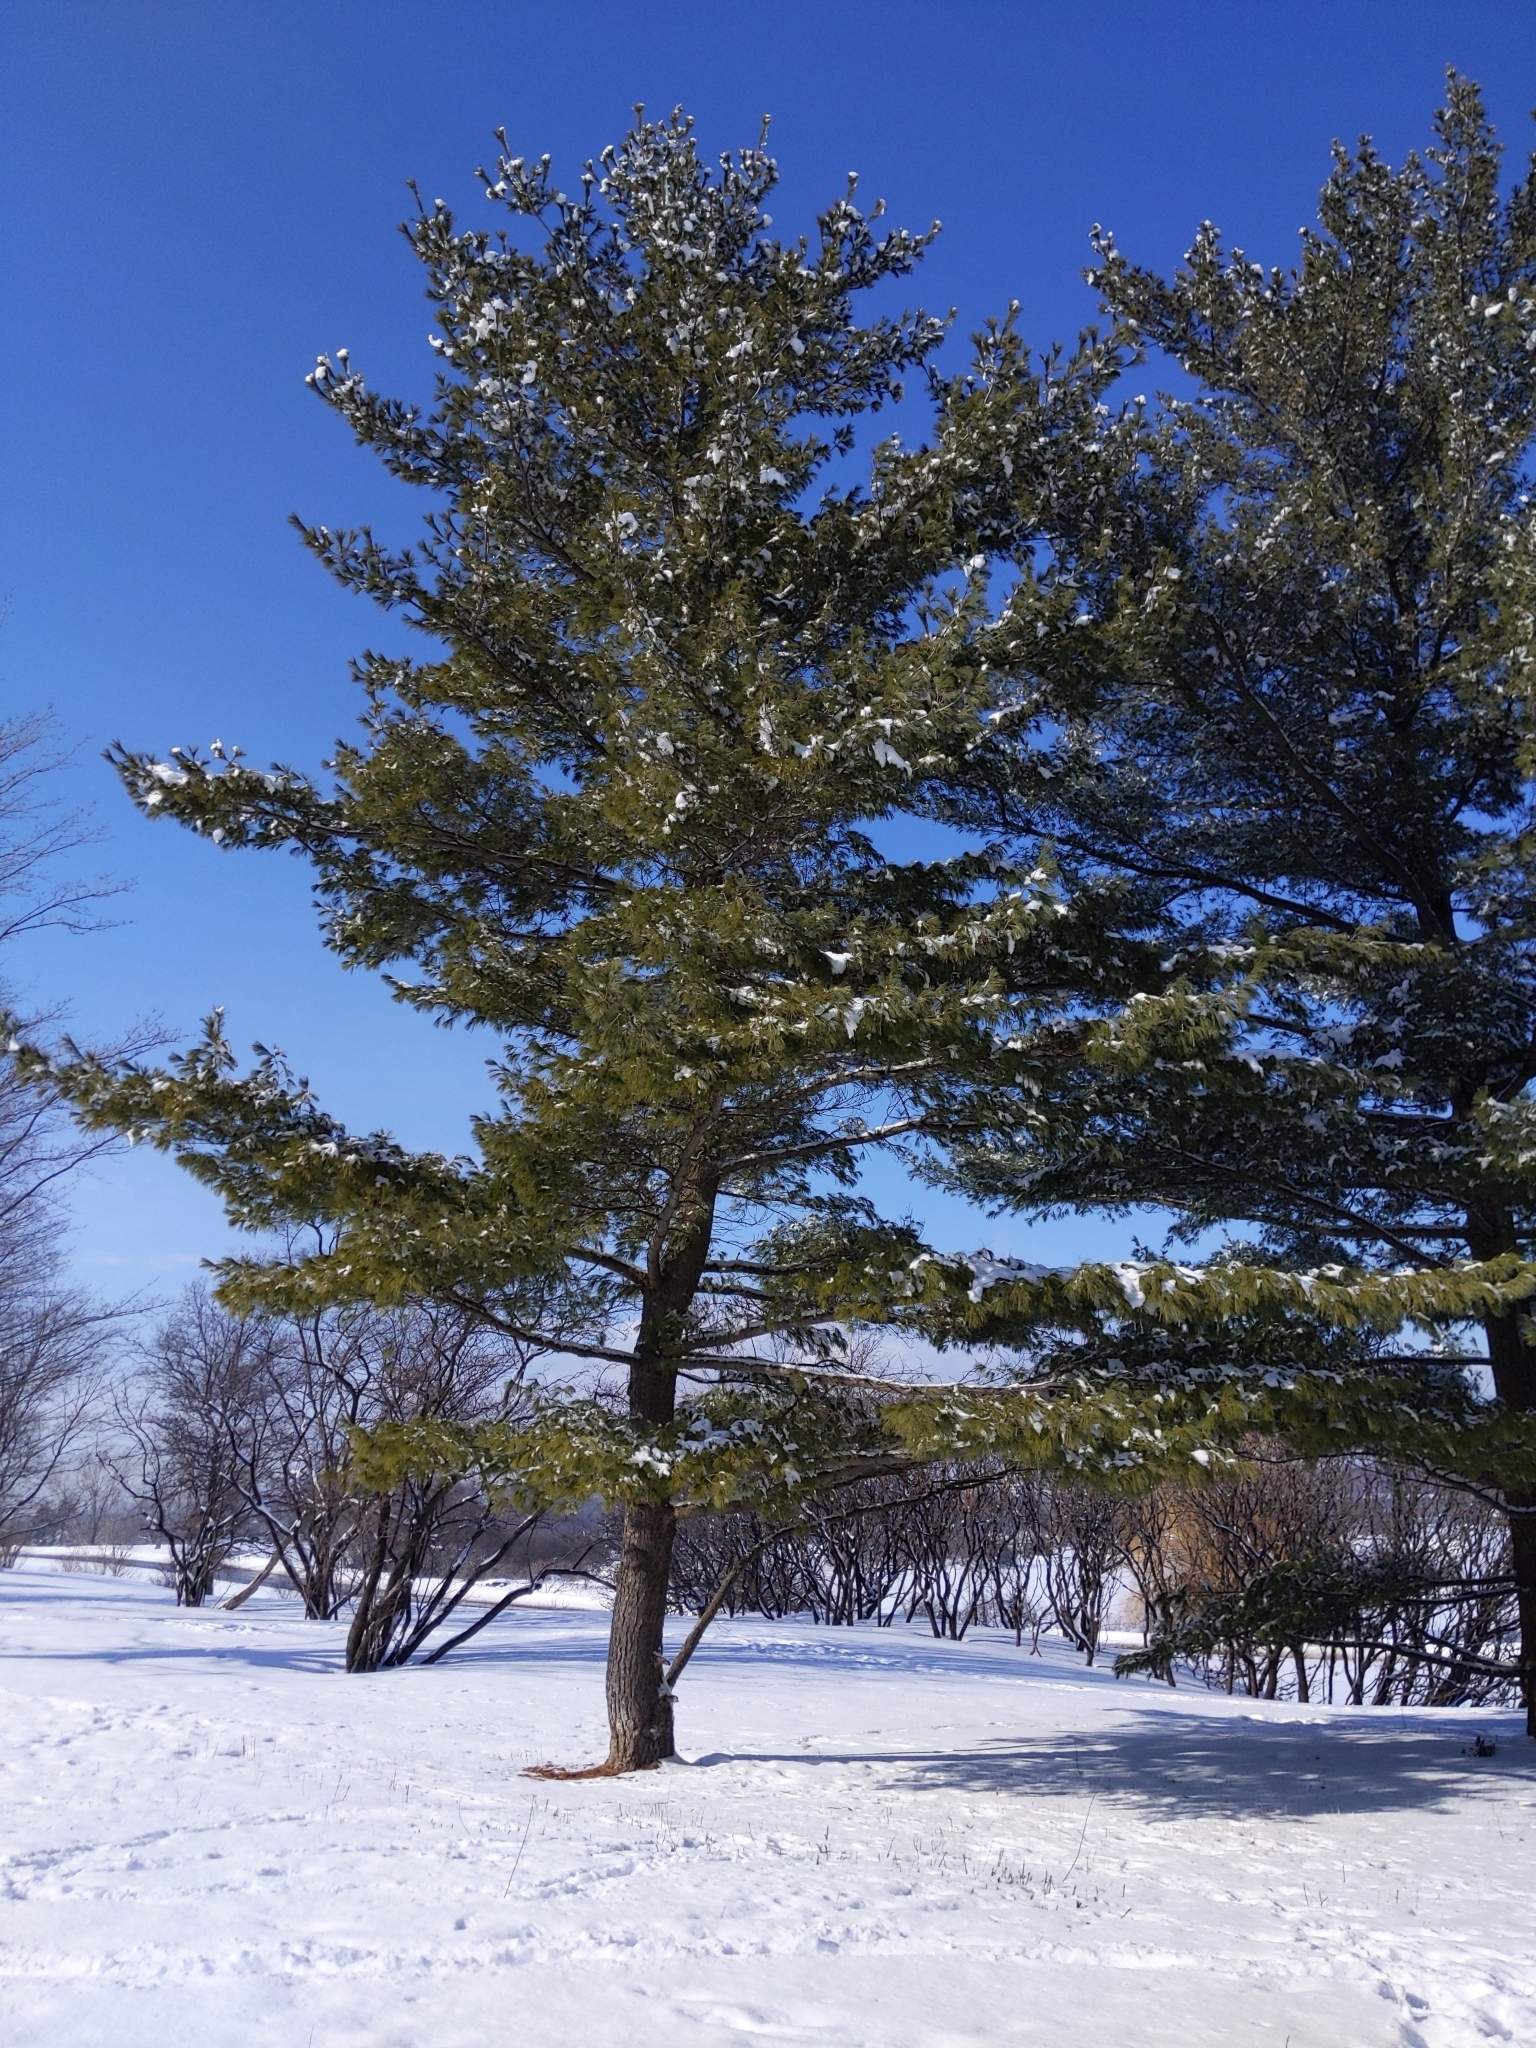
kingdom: Plantae
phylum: Tracheophyta
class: Pinopsida
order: Pinales
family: Pinaceae
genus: Pinus
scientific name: Pinus strobus
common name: Weymouth pine
